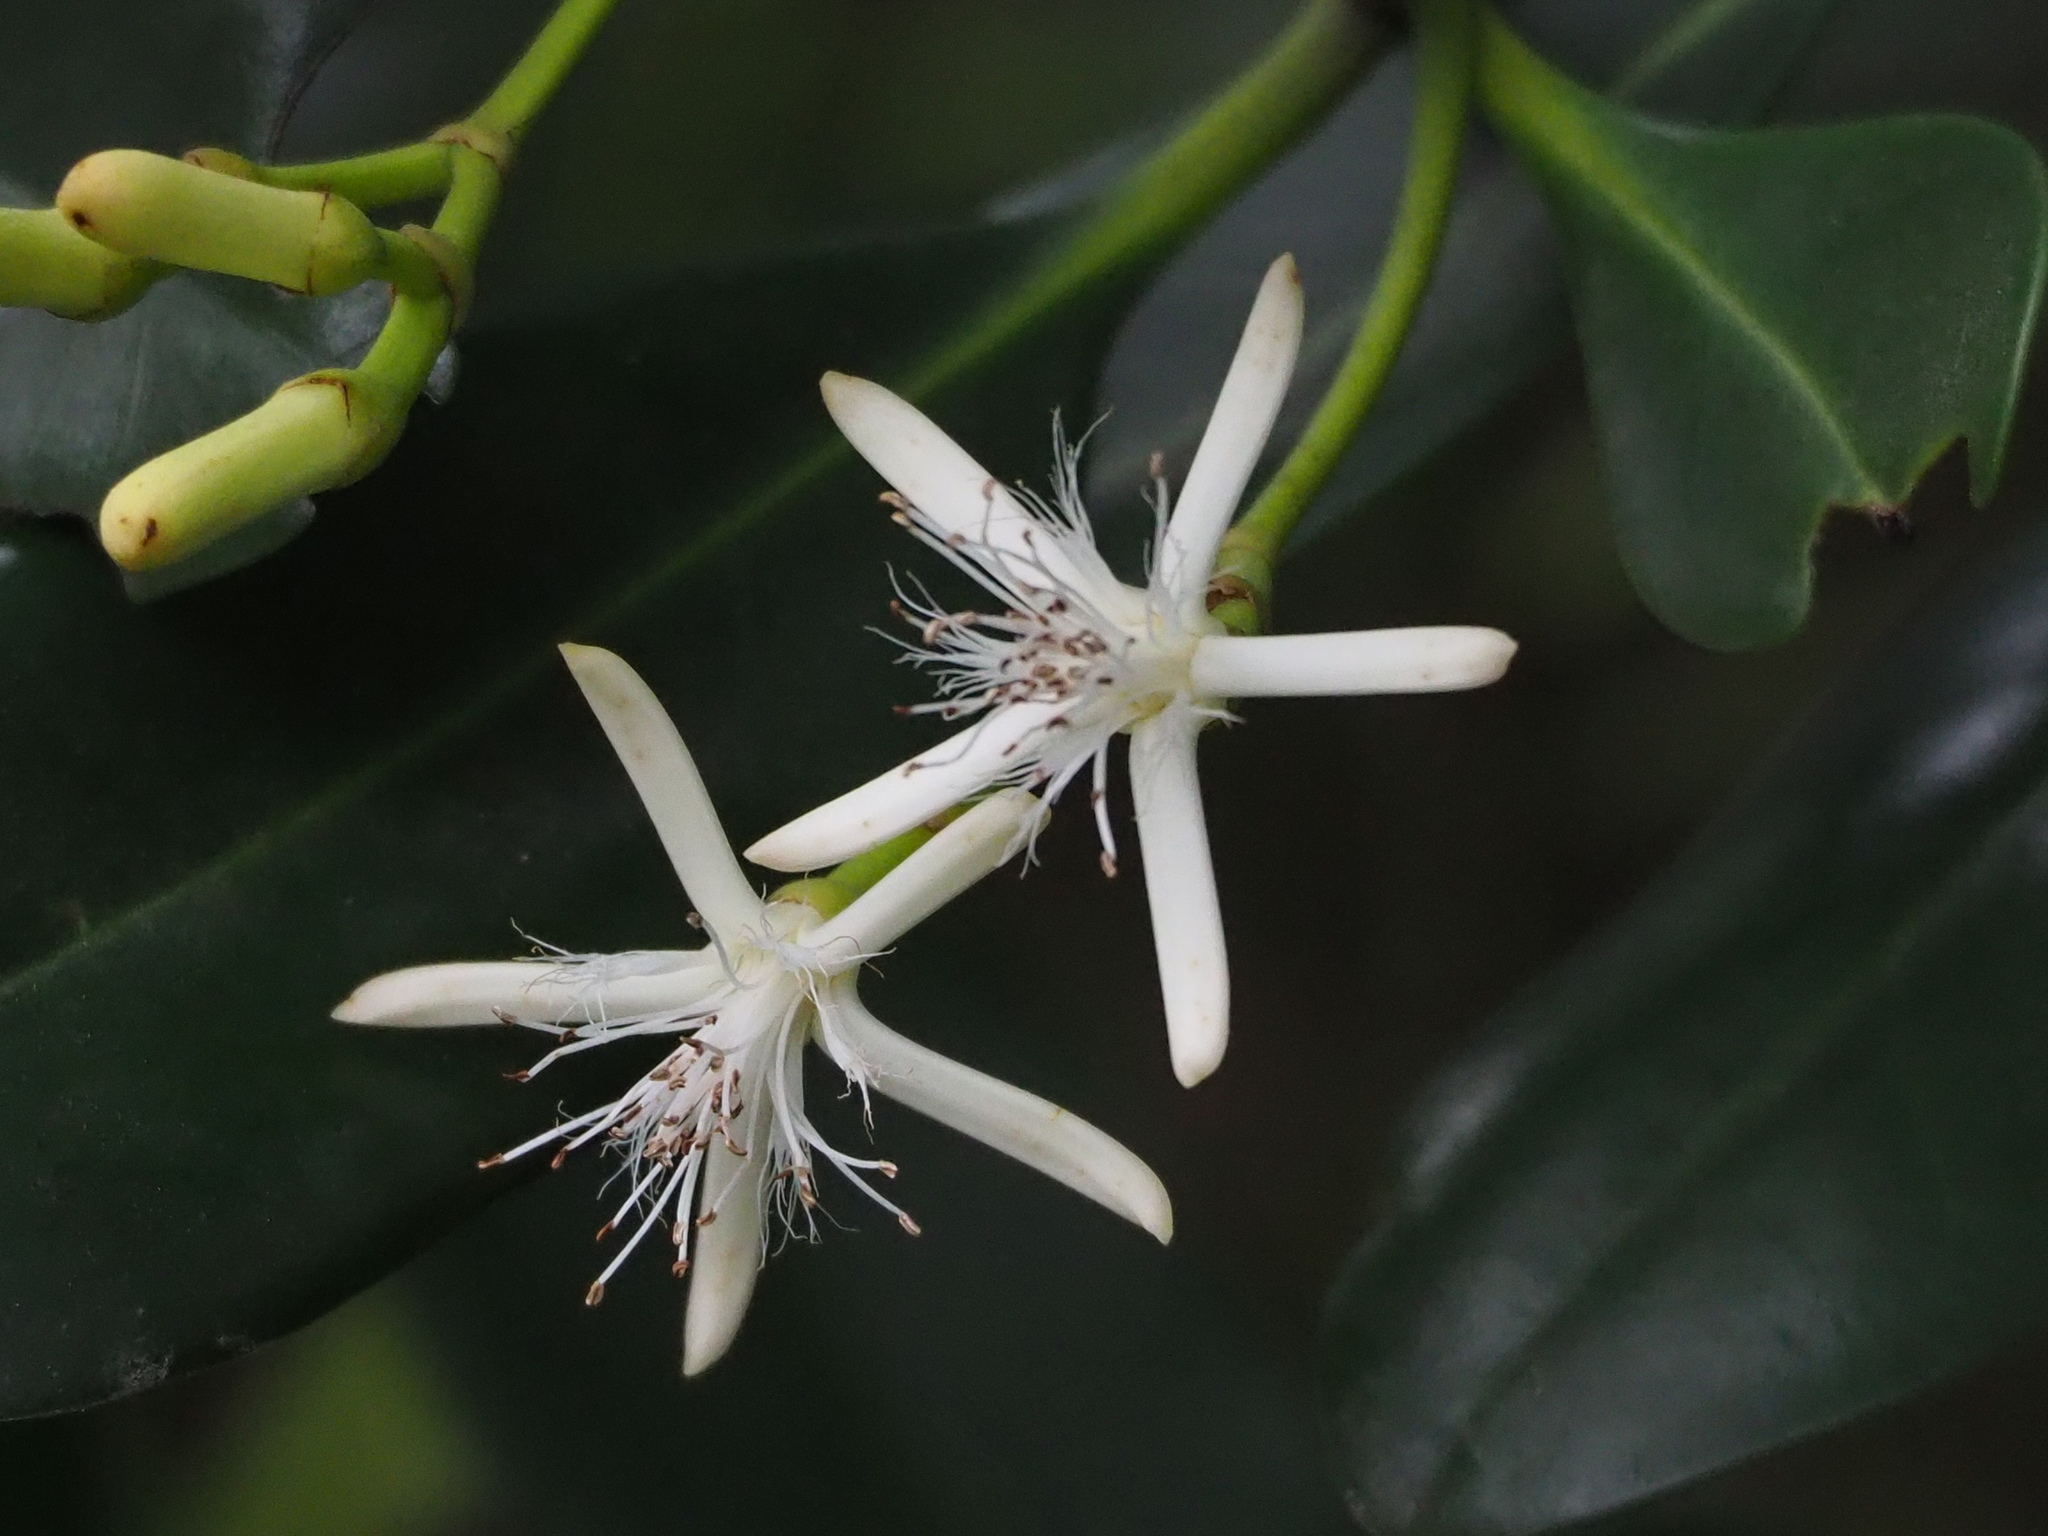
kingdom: Plantae
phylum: Tracheophyta
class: Magnoliopsida
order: Malpighiales
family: Rhizophoraceae
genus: Kandelia
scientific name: Kandelia obovata
